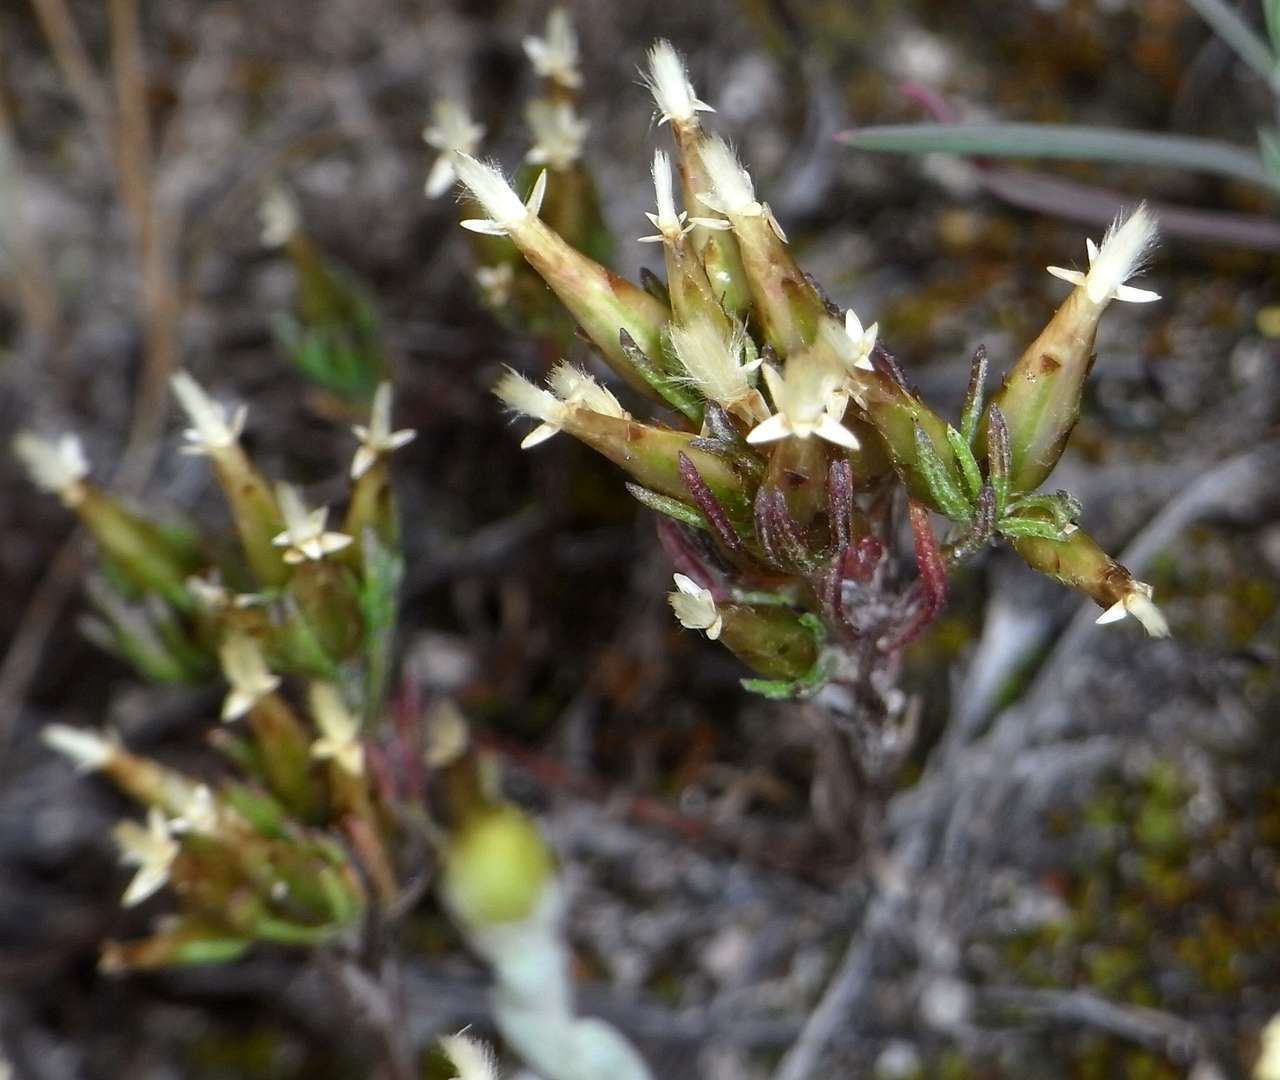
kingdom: Plantae
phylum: Tracheophyta
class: Magnoliopsida
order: Asterales
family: Asteraceae
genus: Rhodanthe
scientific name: Rhodanthe pygmaea
